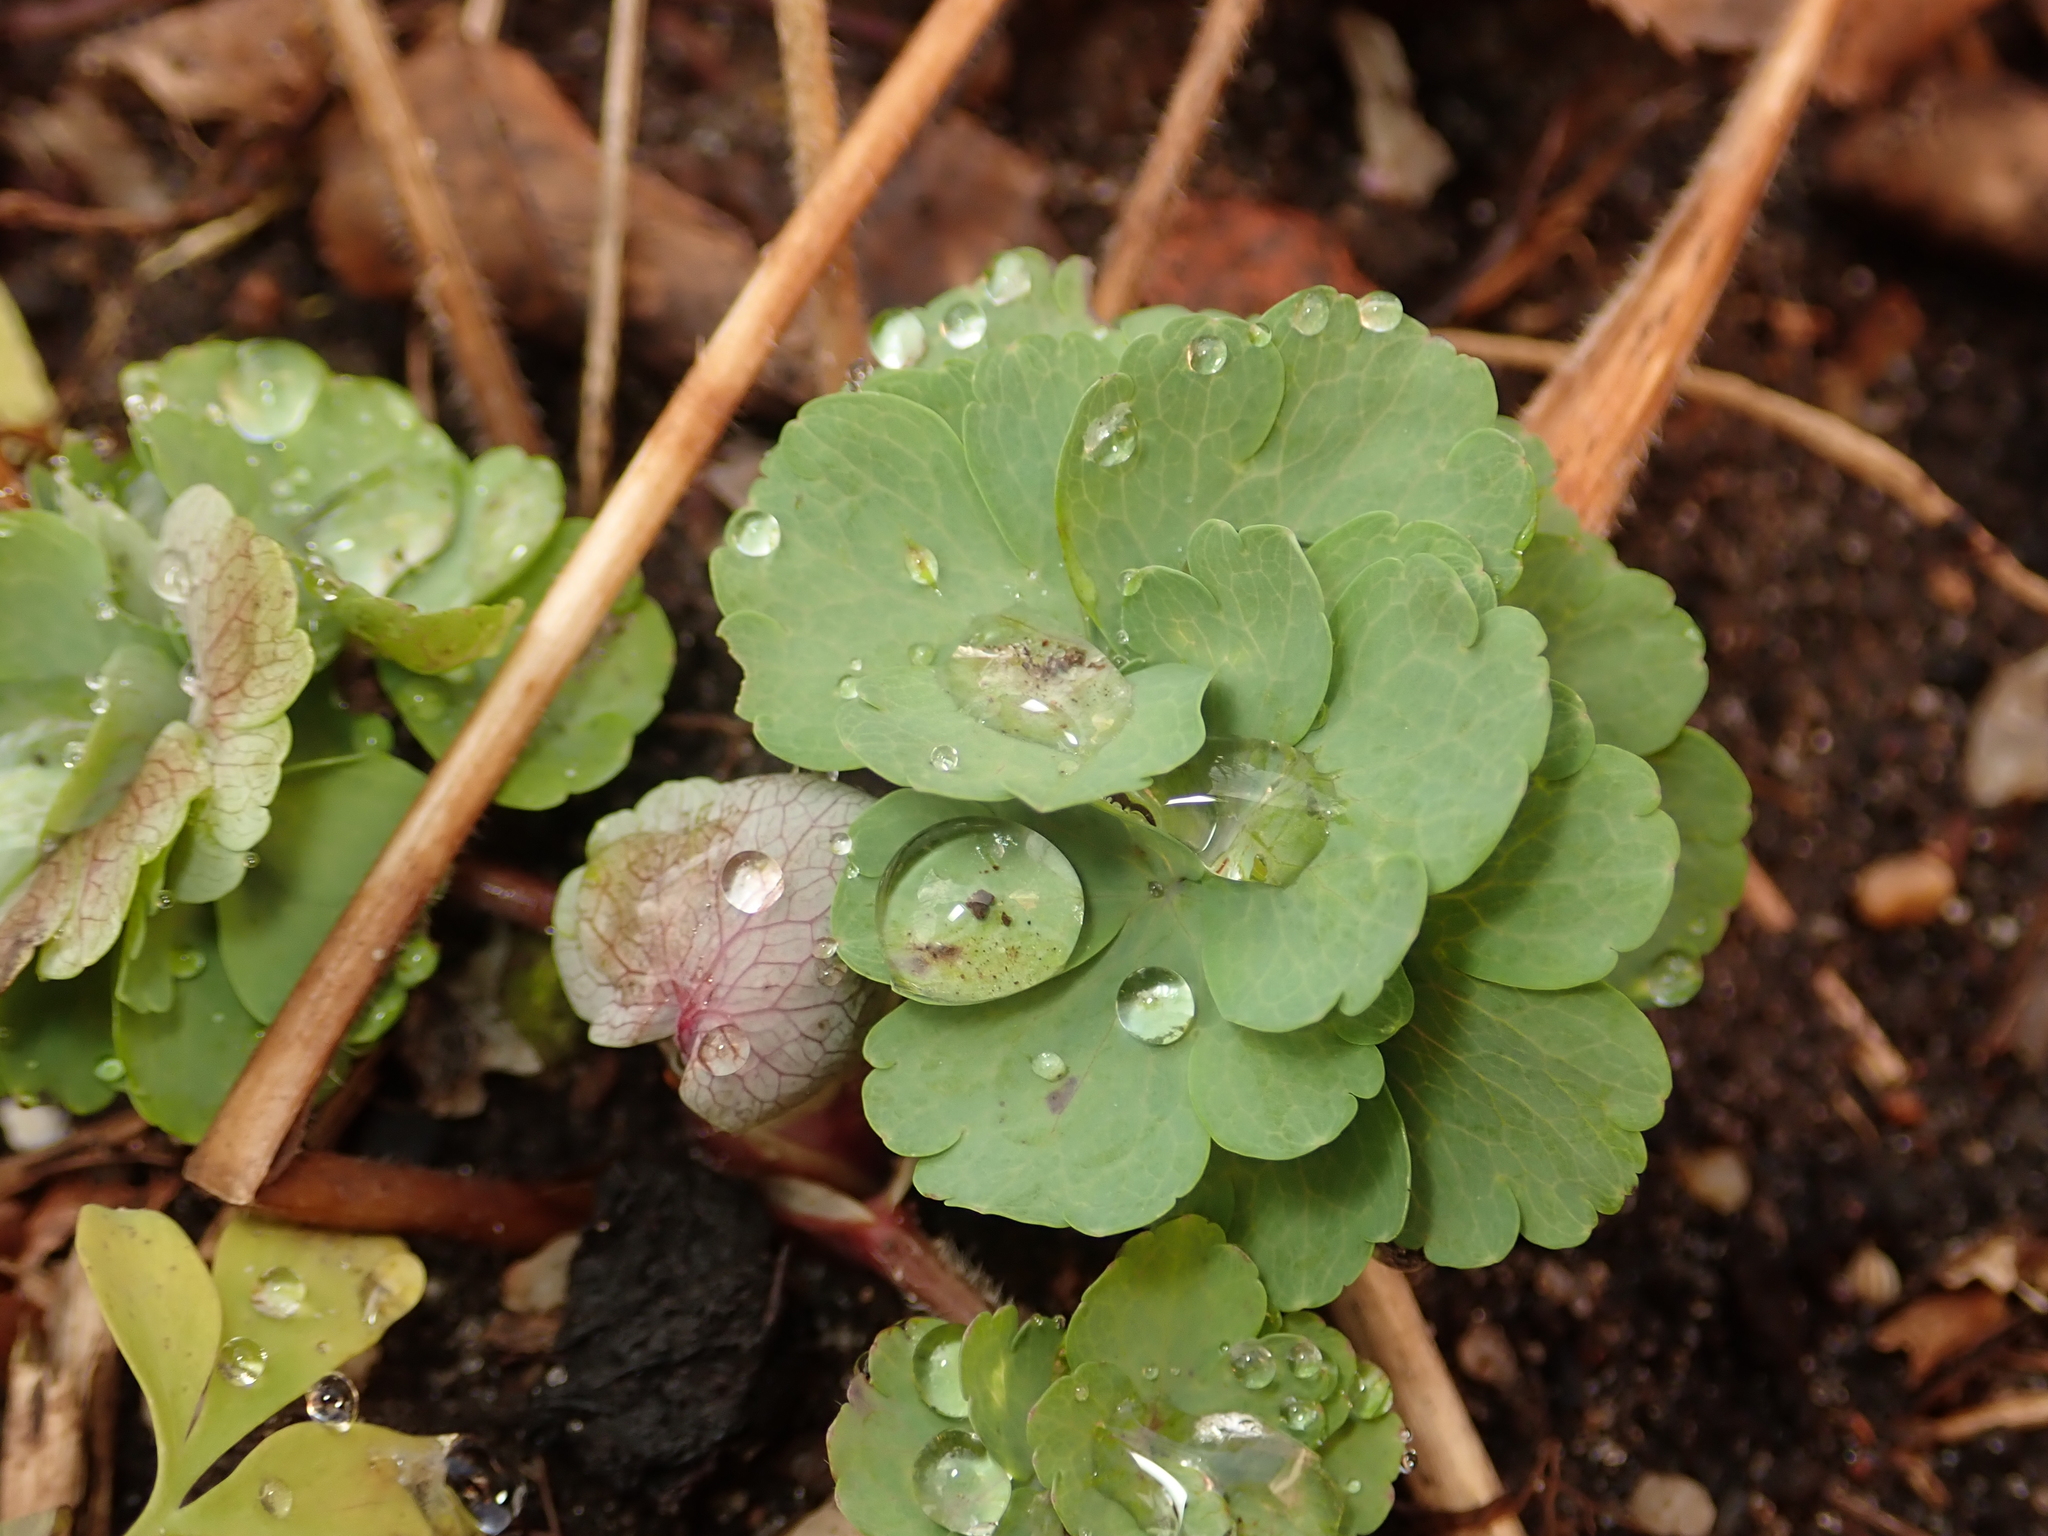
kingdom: Plantae
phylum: Tracheophyta
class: Magnoliopsida
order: Ranunculales
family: Ranunculaceae
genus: Aquilegia
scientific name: Aquilegia vulgaris
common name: Columbine
